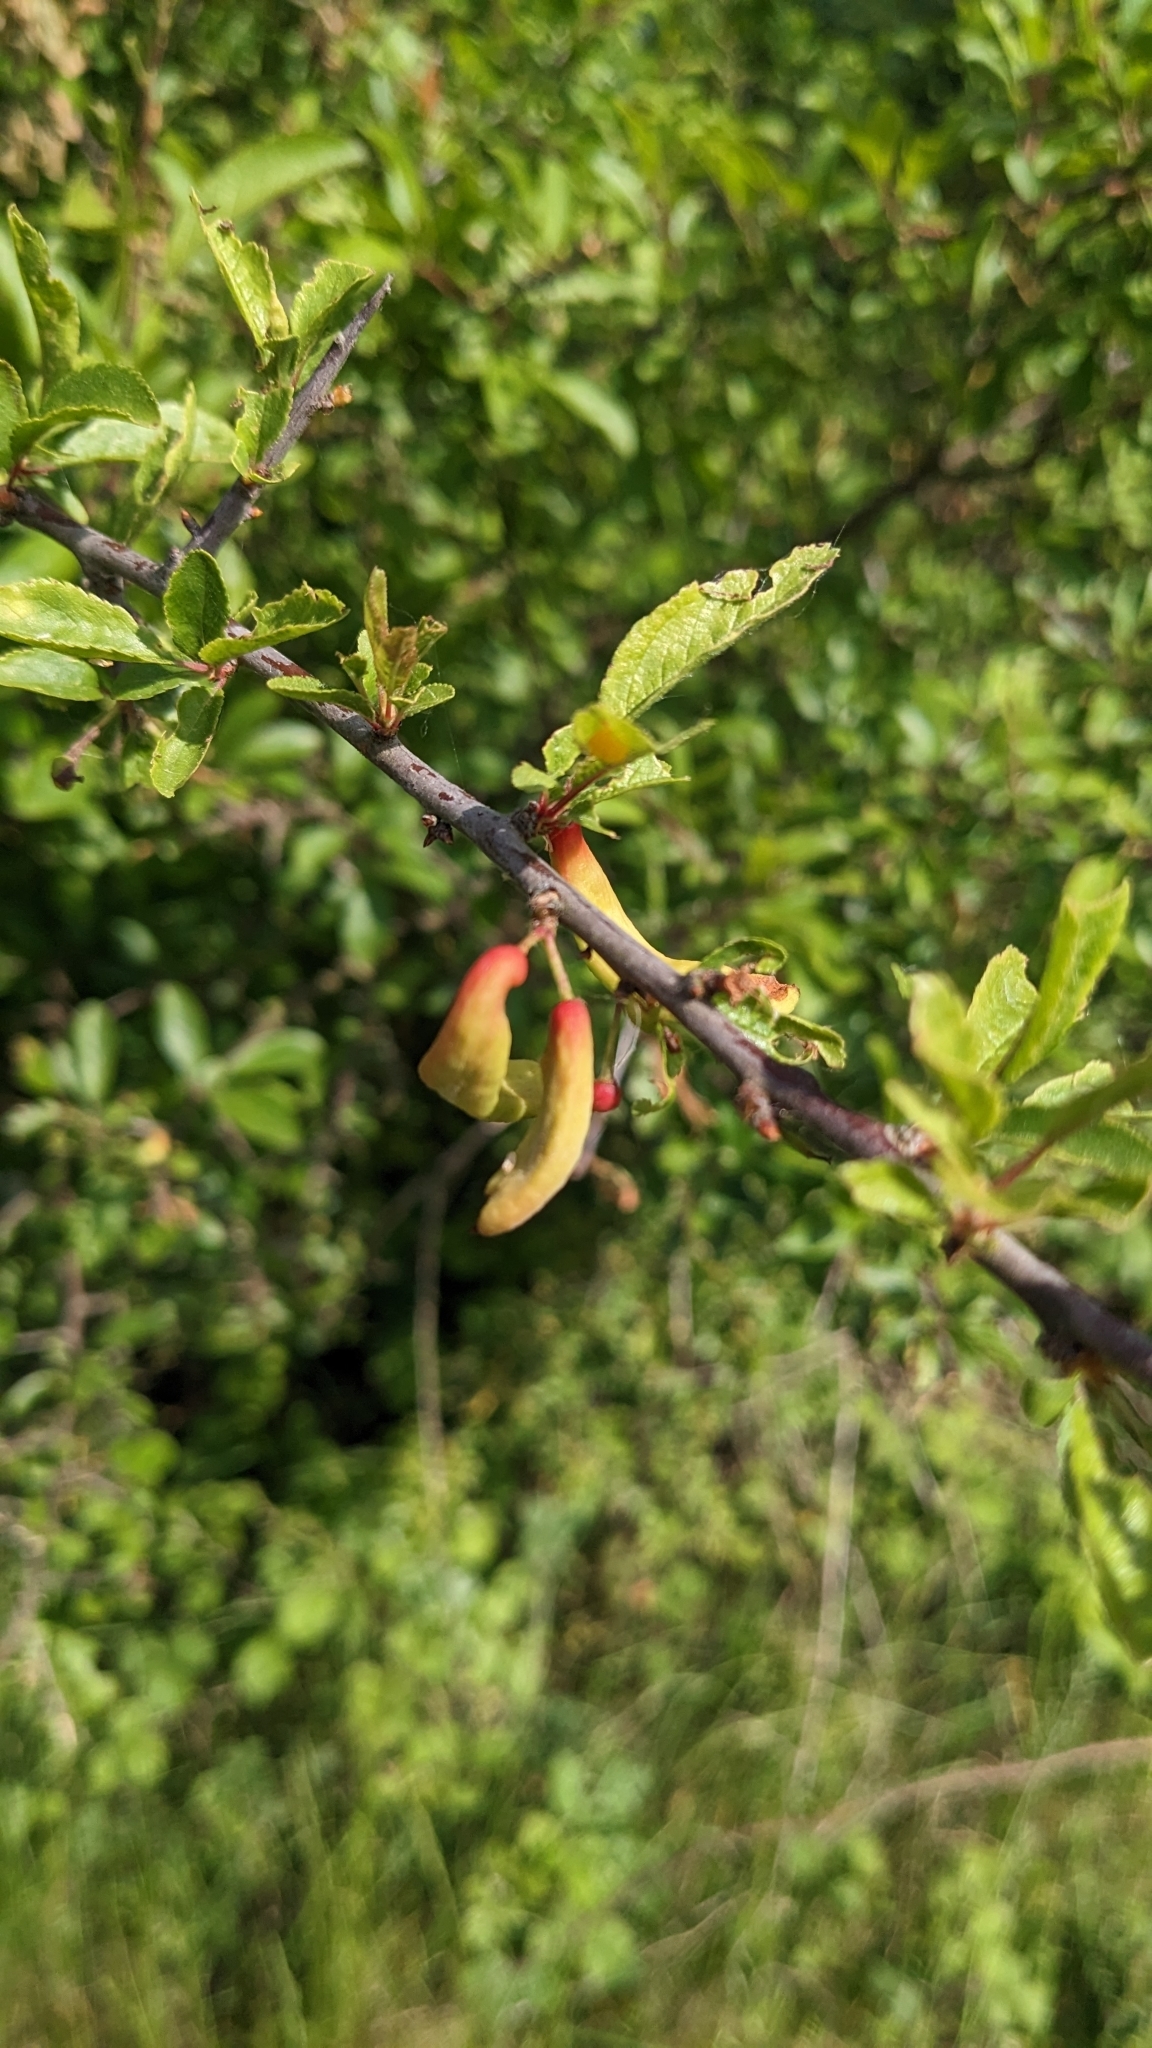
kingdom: Fungi
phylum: Ascomycota
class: Taphrinomycetes
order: Taphrinales
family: Taphrinaceae
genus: Taphrina
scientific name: Taphrina pruni
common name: Pocket plum
